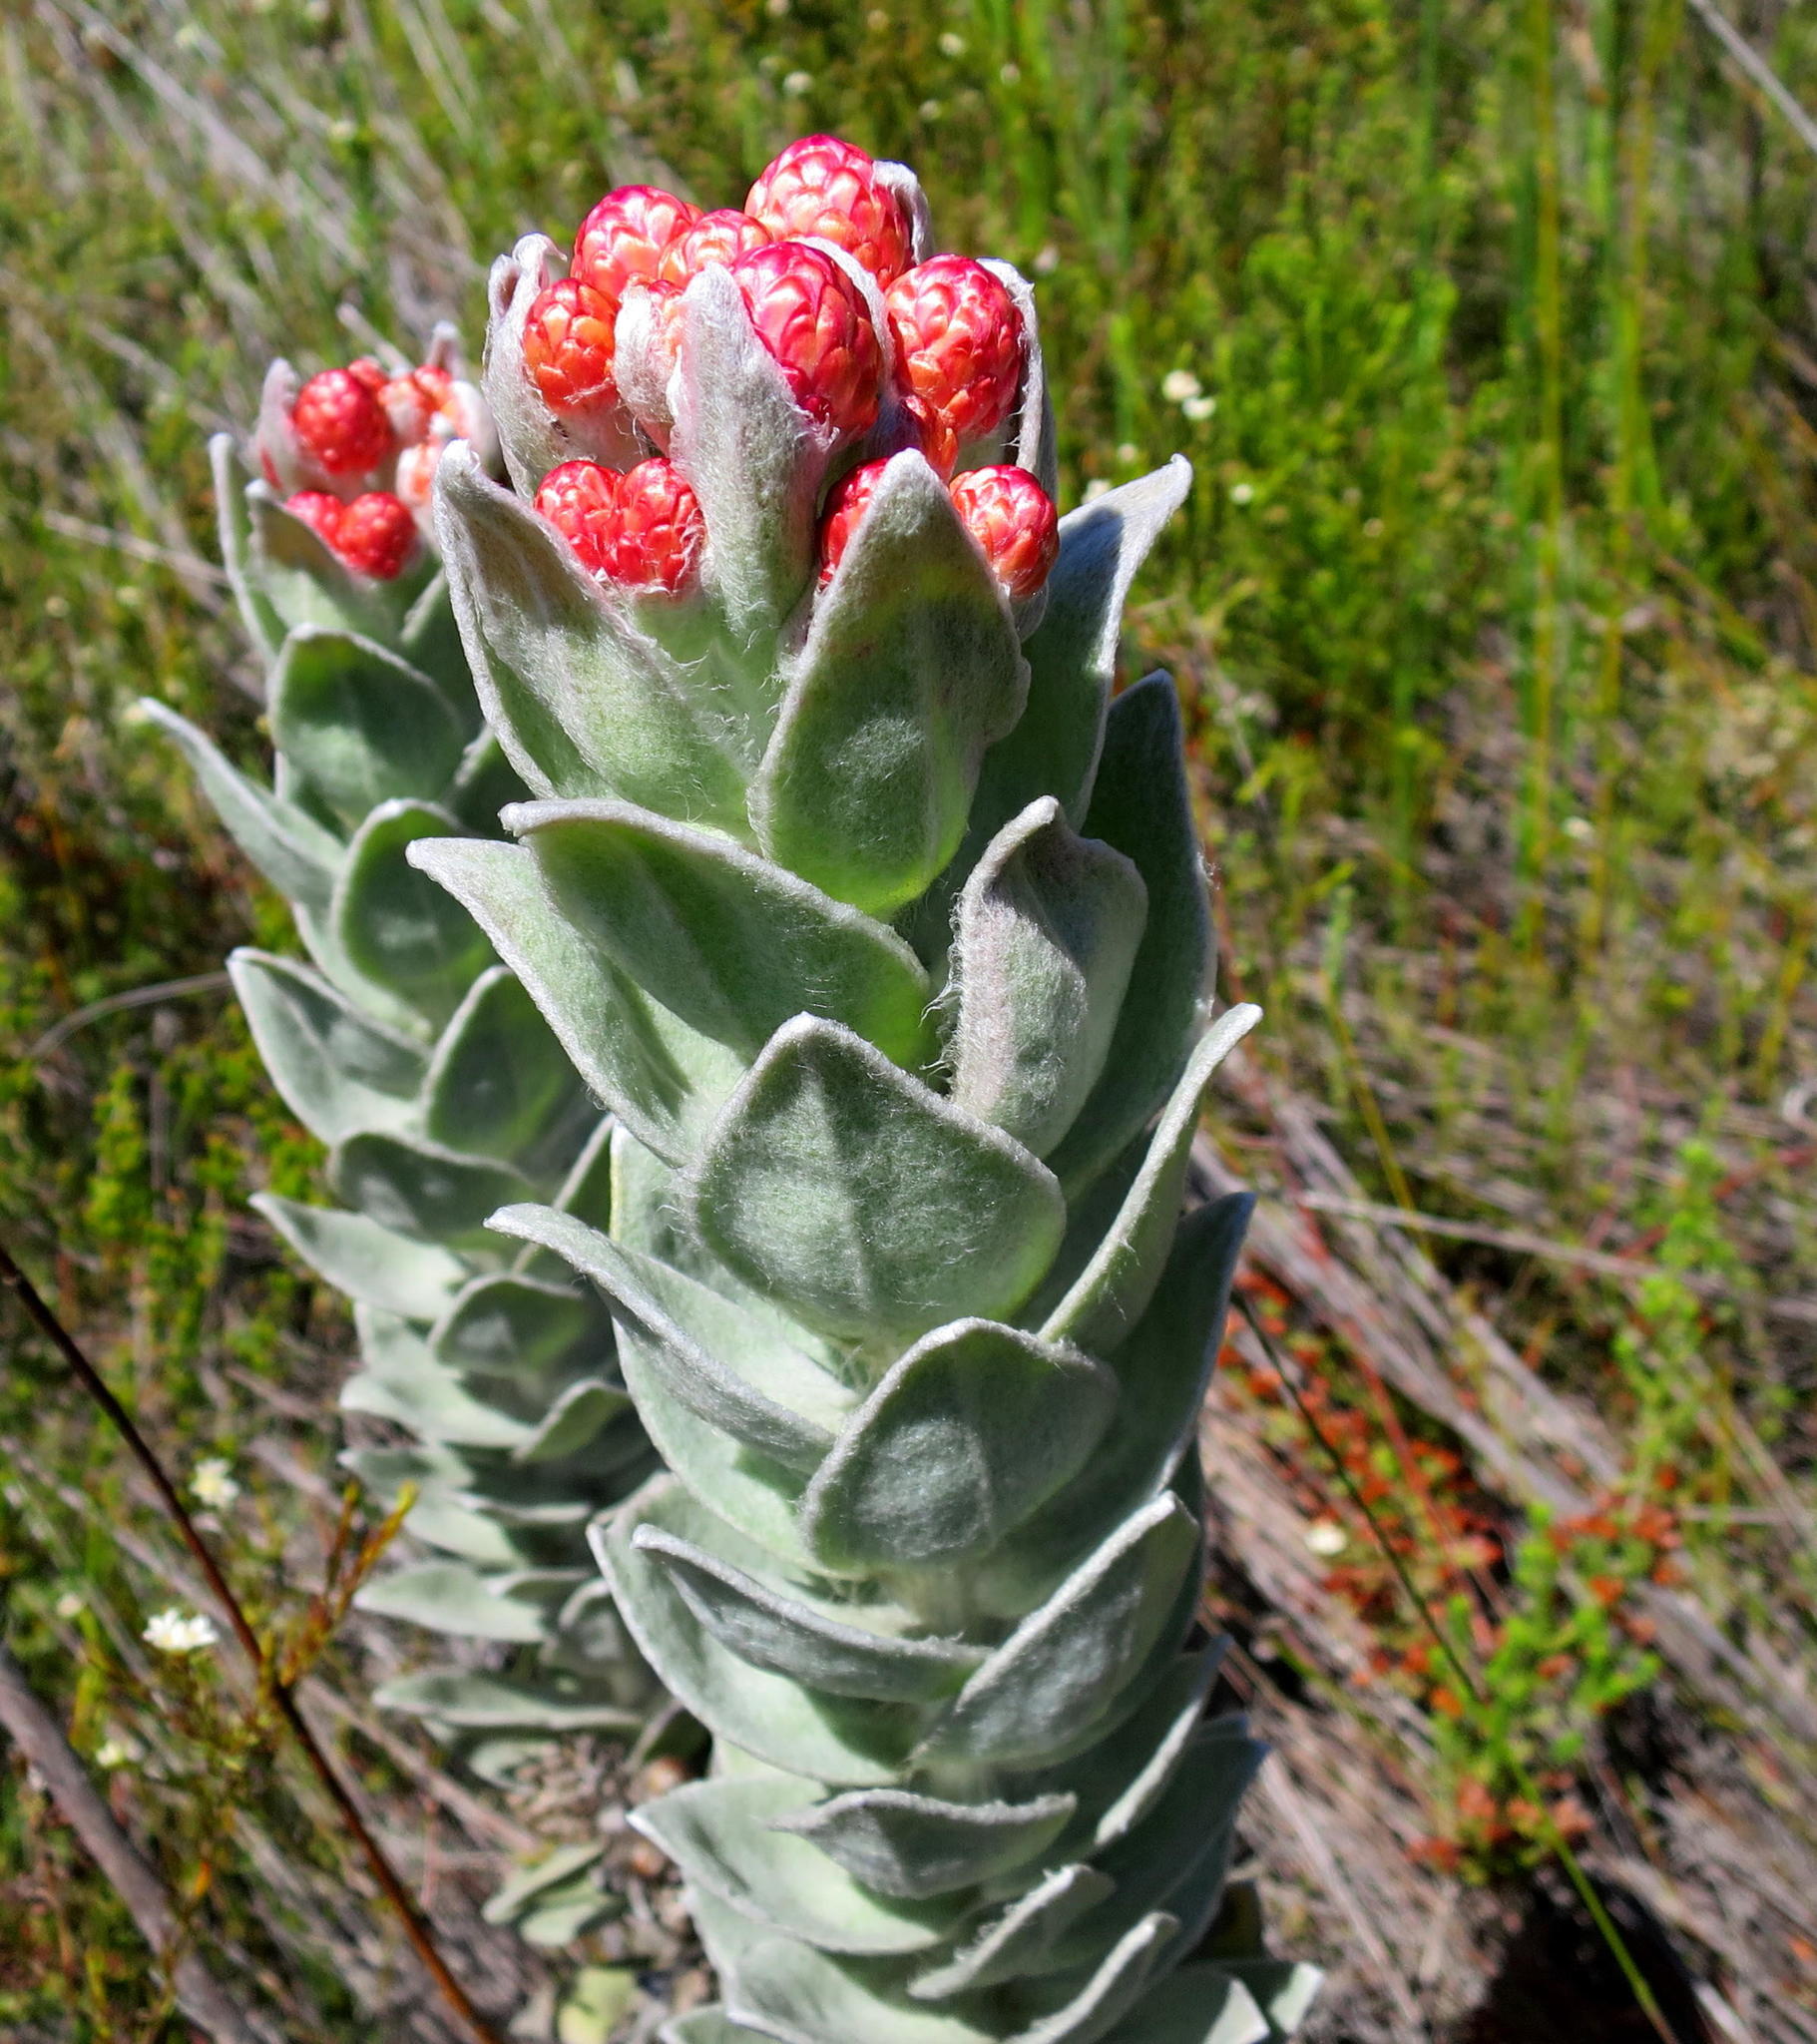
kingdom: Plantae
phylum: Tracheophyta
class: Magnoliopsida
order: Asterales
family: Asteraceae
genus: Syncarpha
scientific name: Syncarpha eximia
